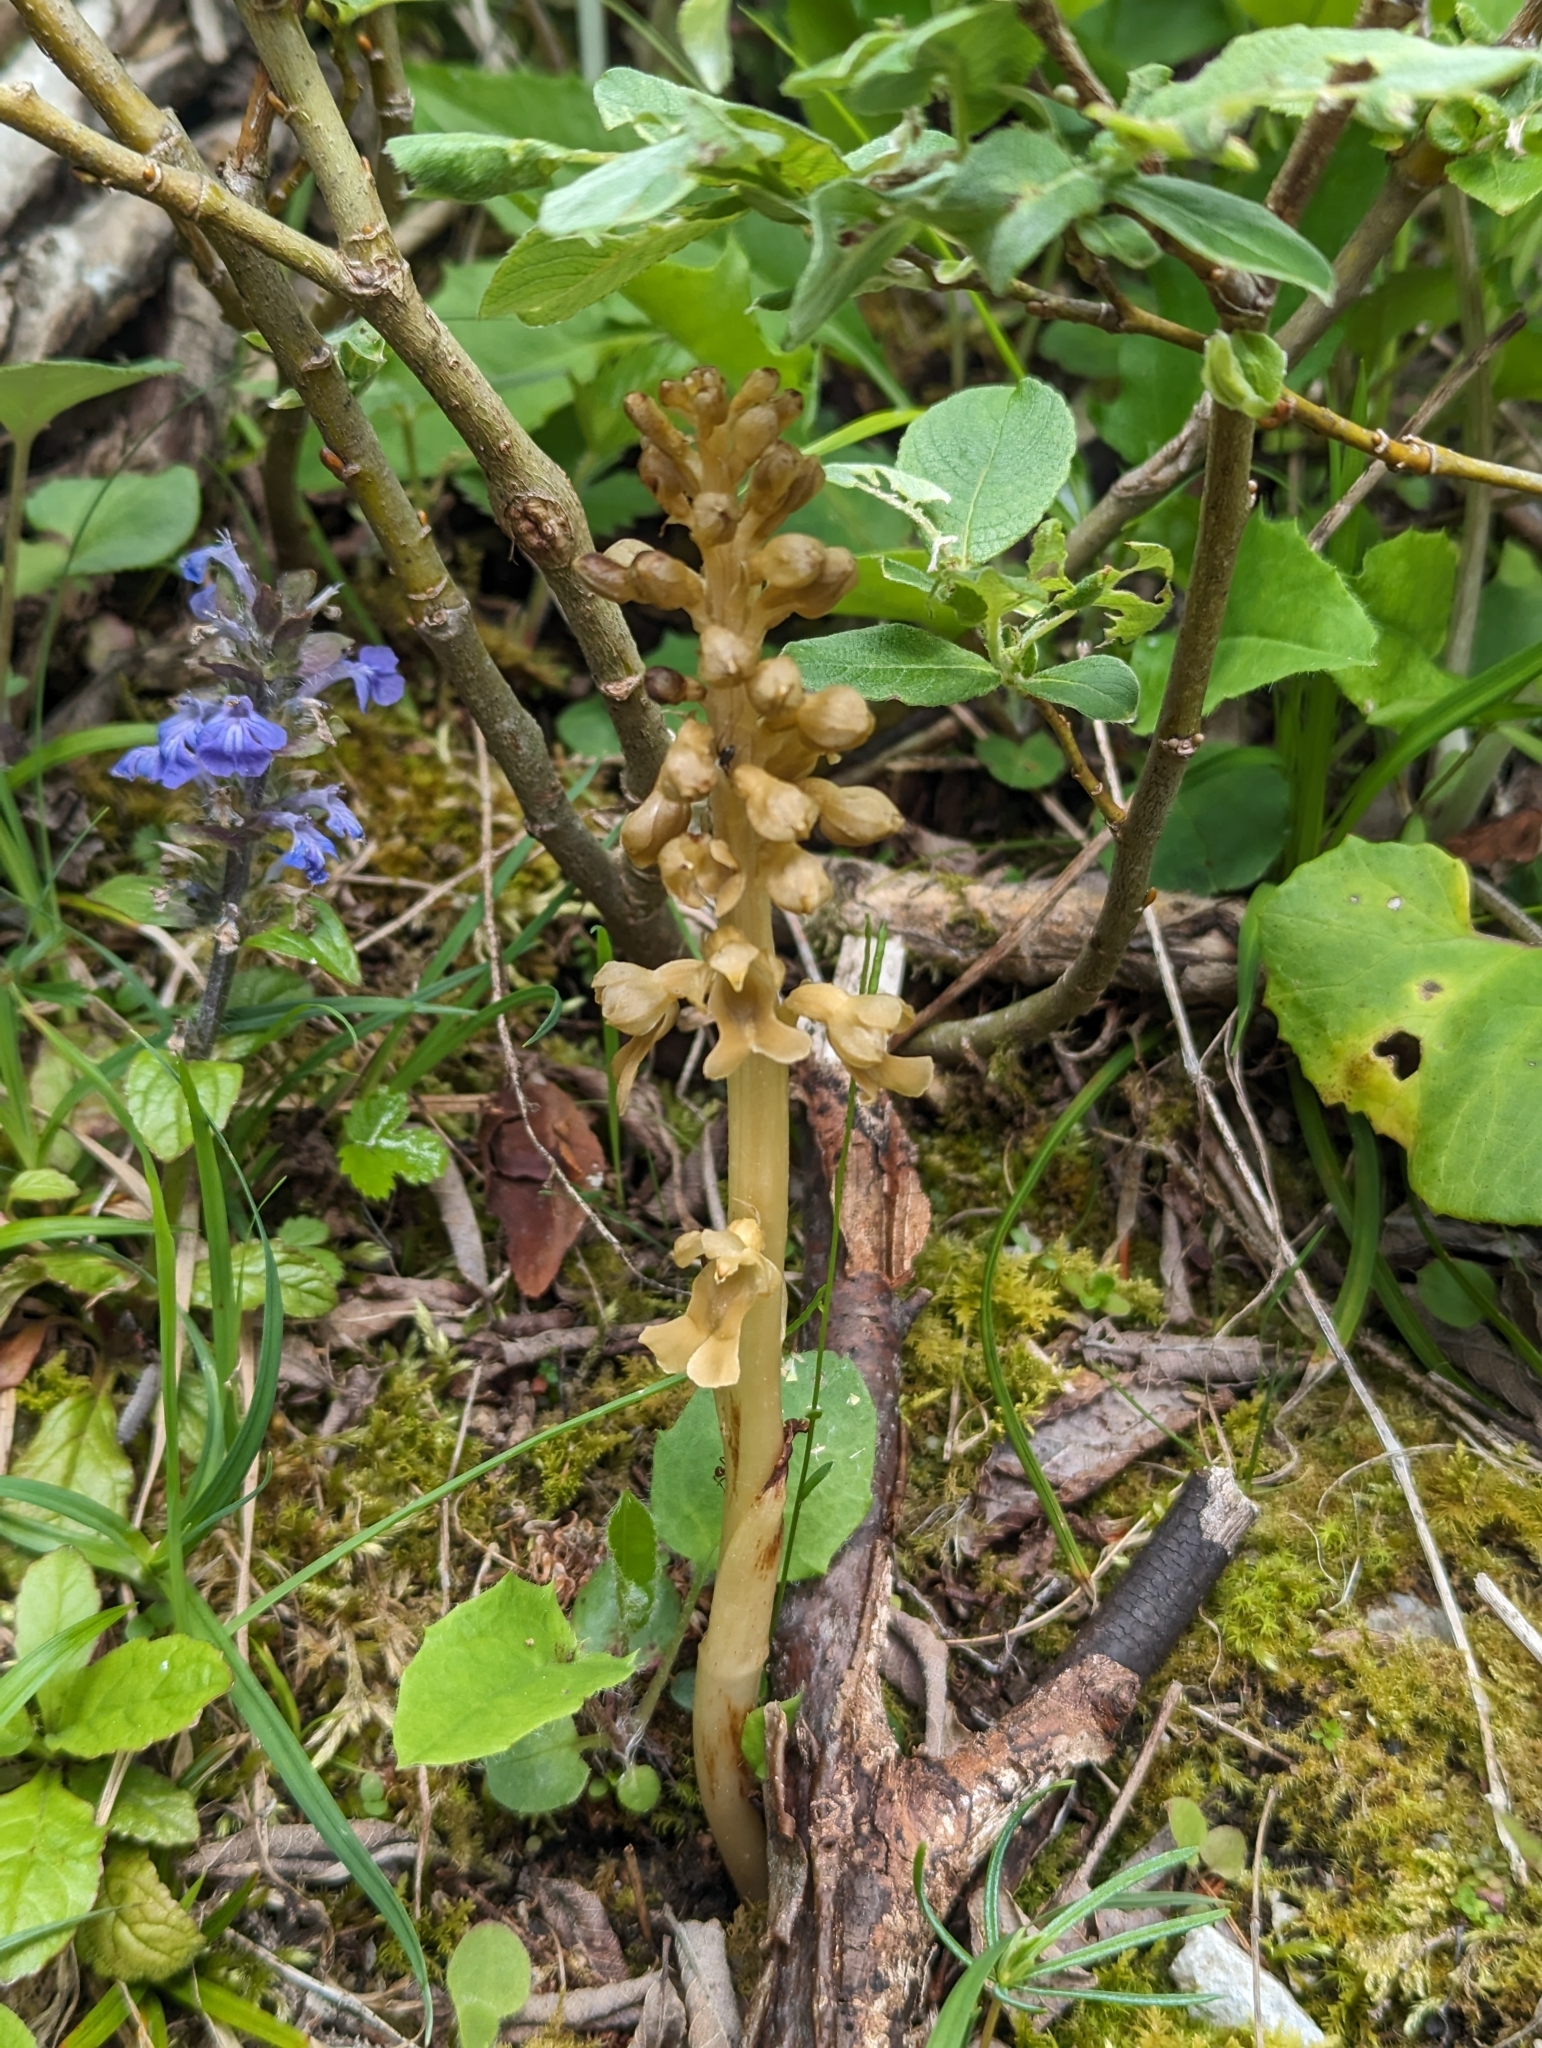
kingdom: Plantae
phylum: Tracheophyta
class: Liliopsida
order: Asparagales
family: Orchidaceae
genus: Neottia
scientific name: Neottia nidus-avis
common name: Bird's-nest orchid
